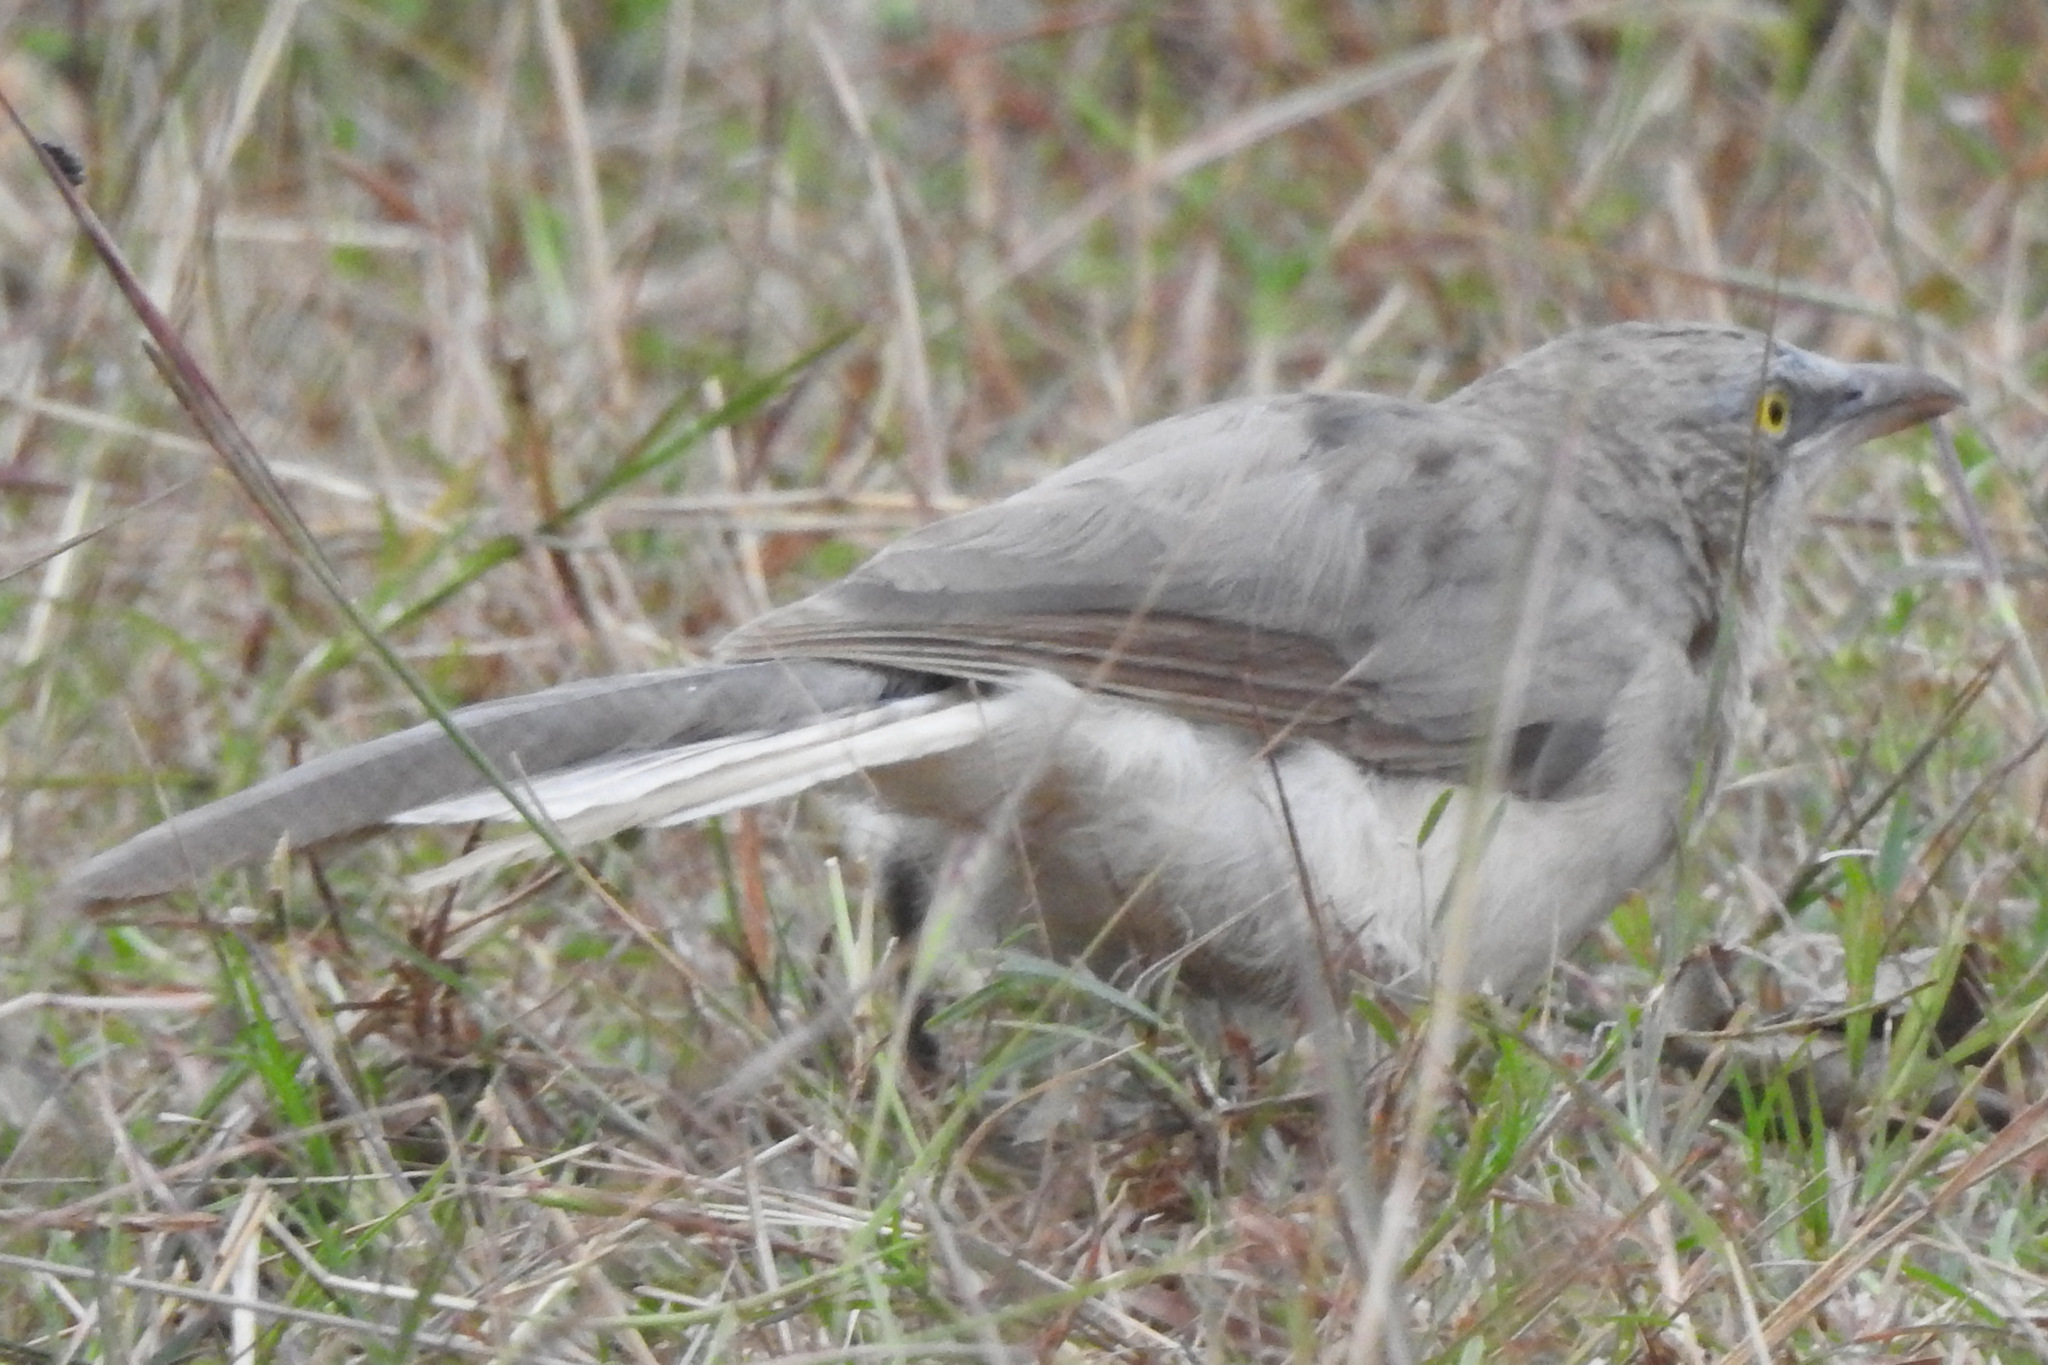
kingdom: Animalia
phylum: Chordata
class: Aves
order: Passeriformes
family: Leiothrichidae
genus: Turdoides
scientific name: Turdoides malcolmi
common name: Large grey babbler
